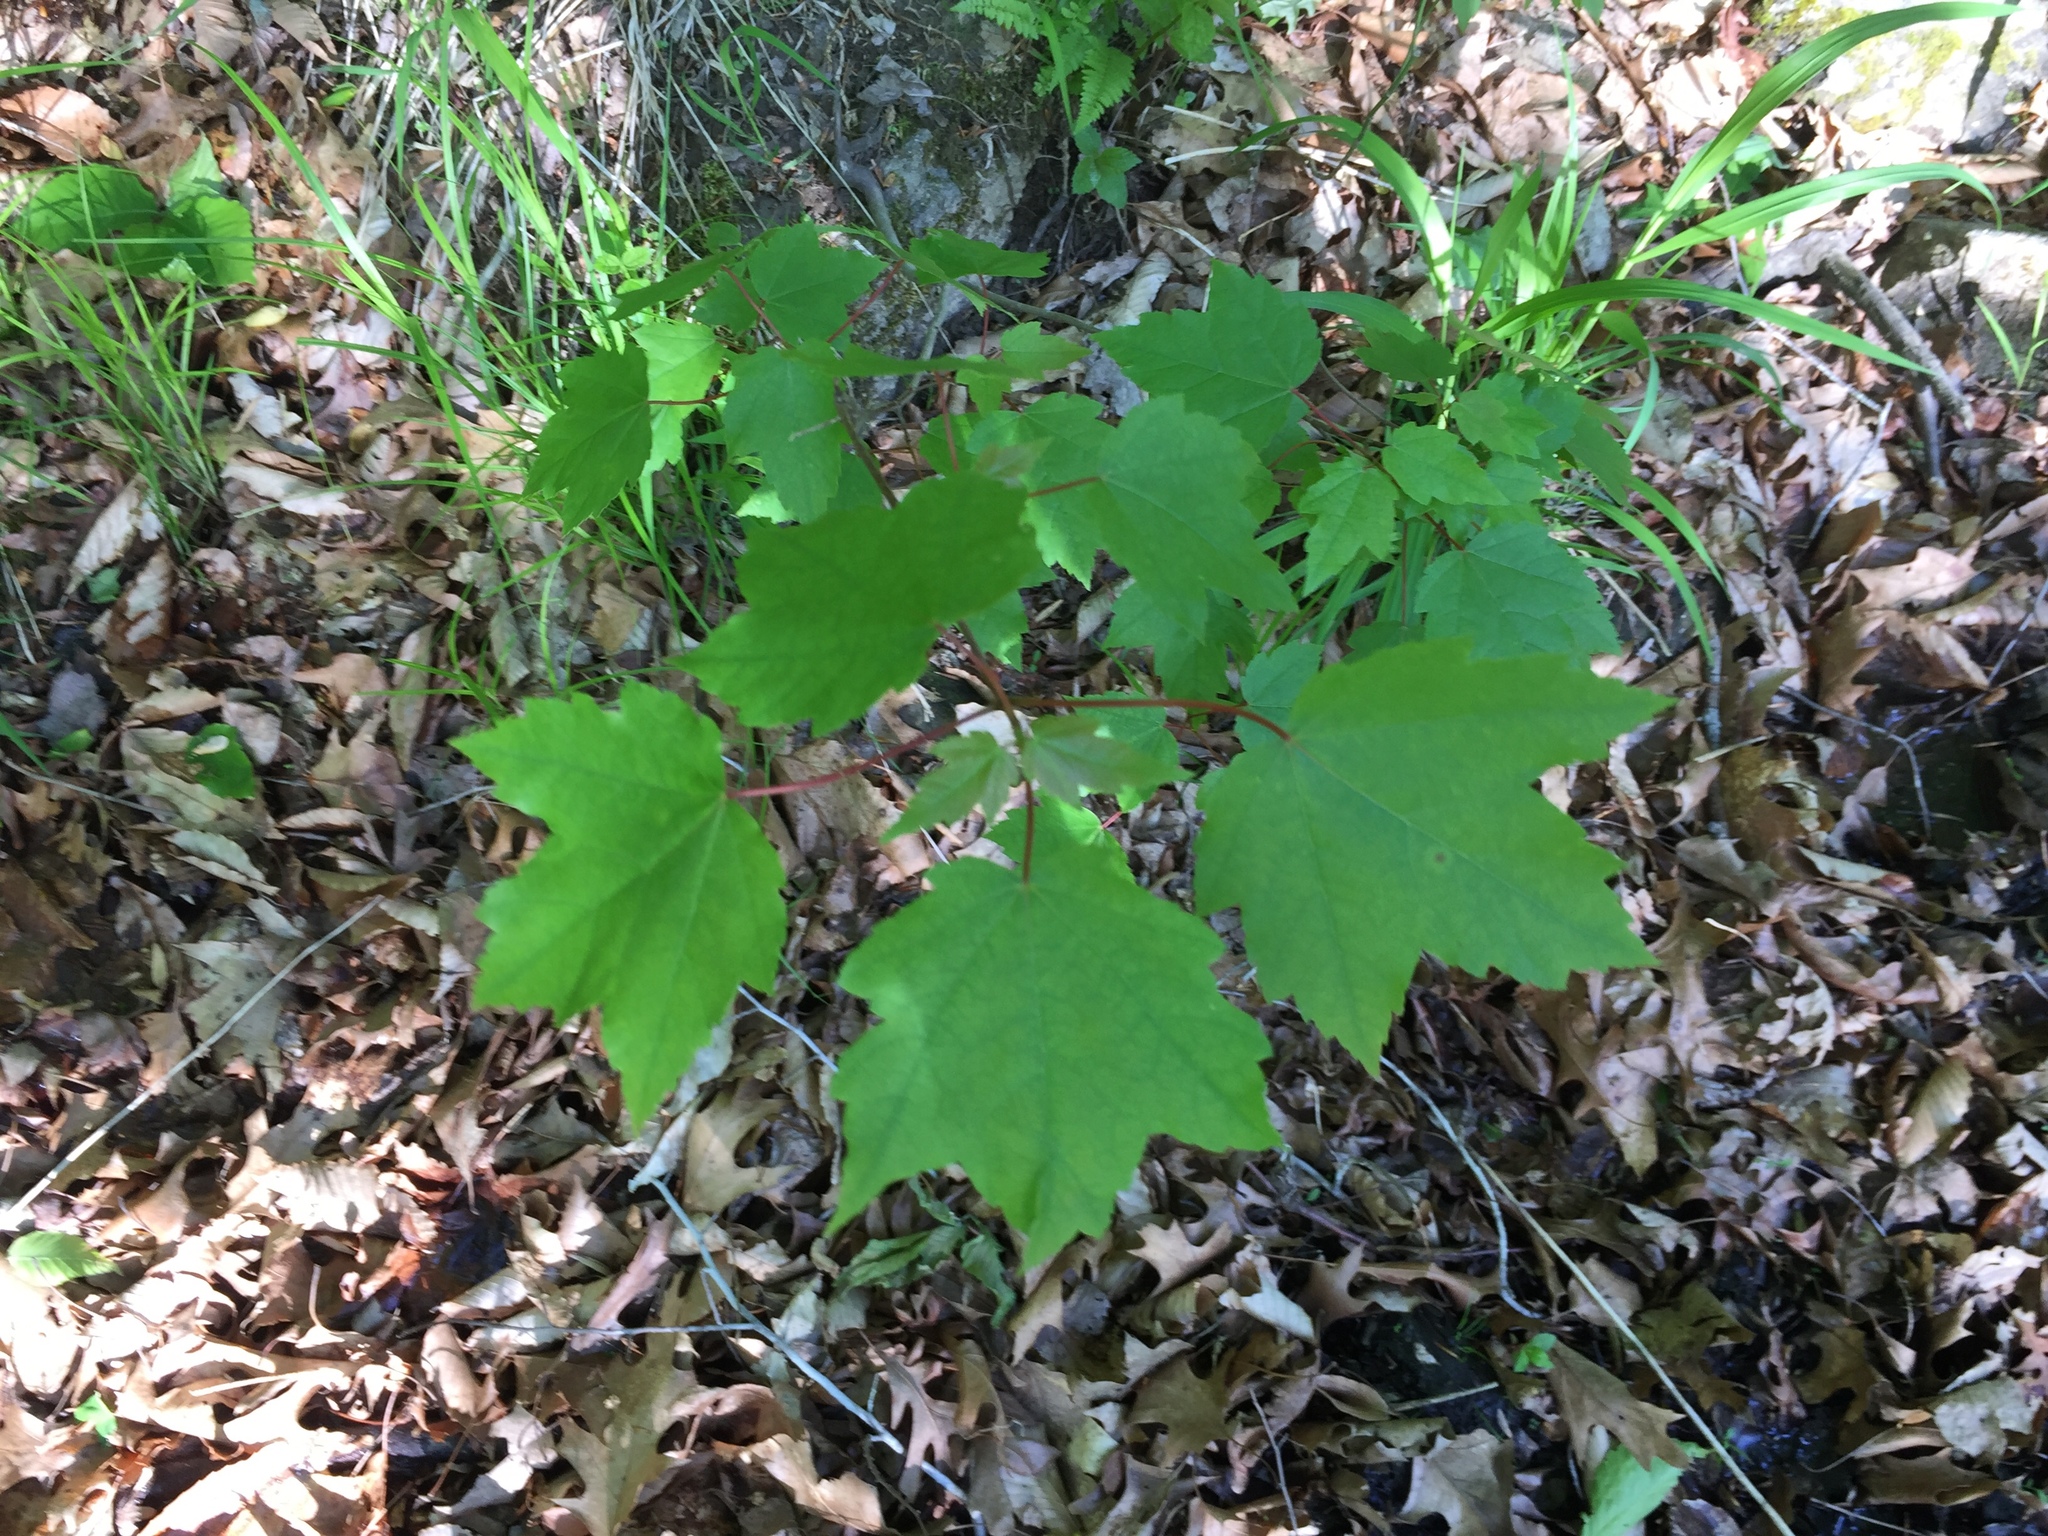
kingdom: Plantae
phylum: Tracheophyta
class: Magnoliopsida
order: Sapindales
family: Sapindaceae
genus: Acer
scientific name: Acer rubrum
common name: Red maple
